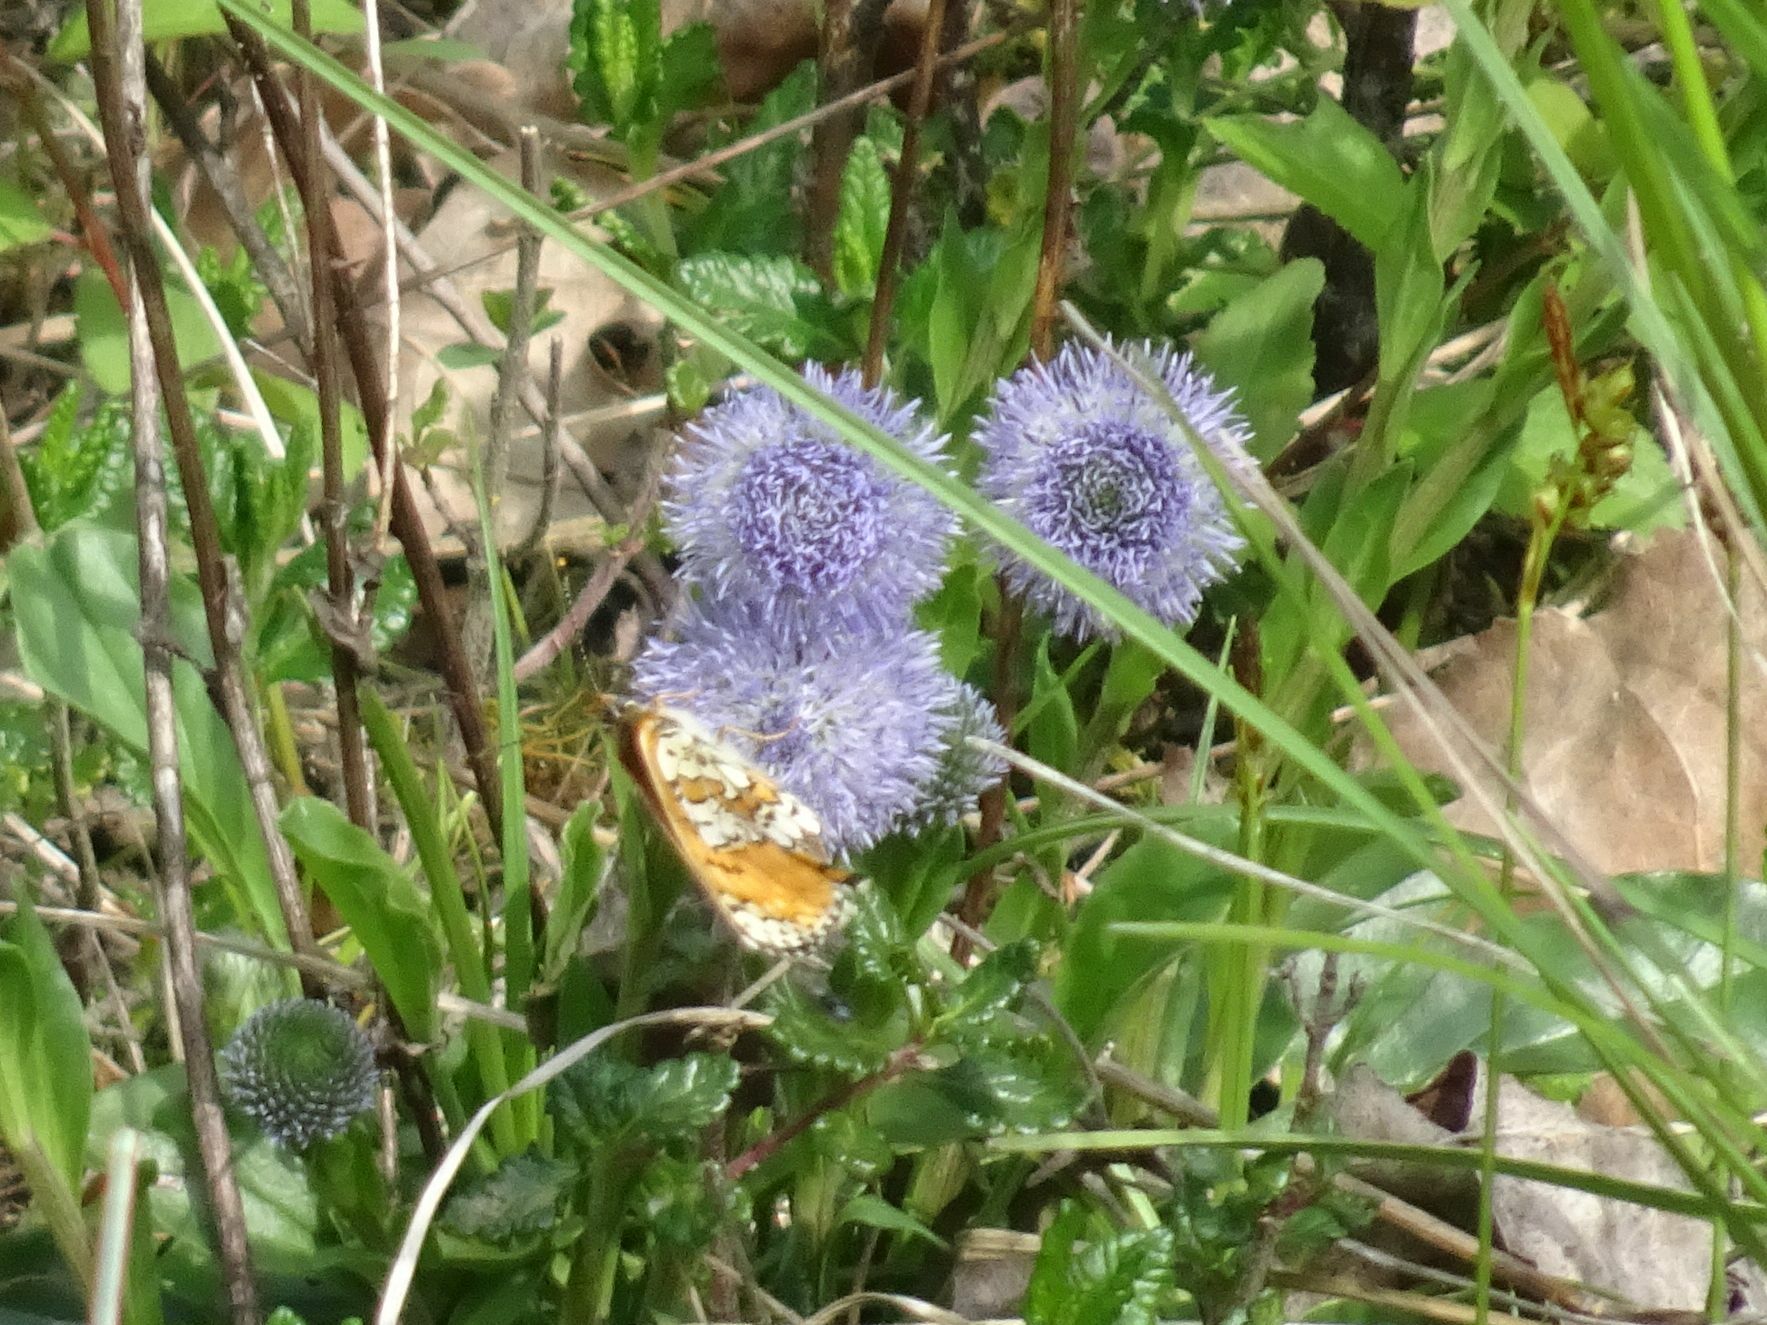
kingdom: Animalia
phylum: Arthropoda
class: Insecta
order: Lepidoptera
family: Nymphalidae
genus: Melitaea
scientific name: Melitaea cinxia
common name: Glanville fritillary
